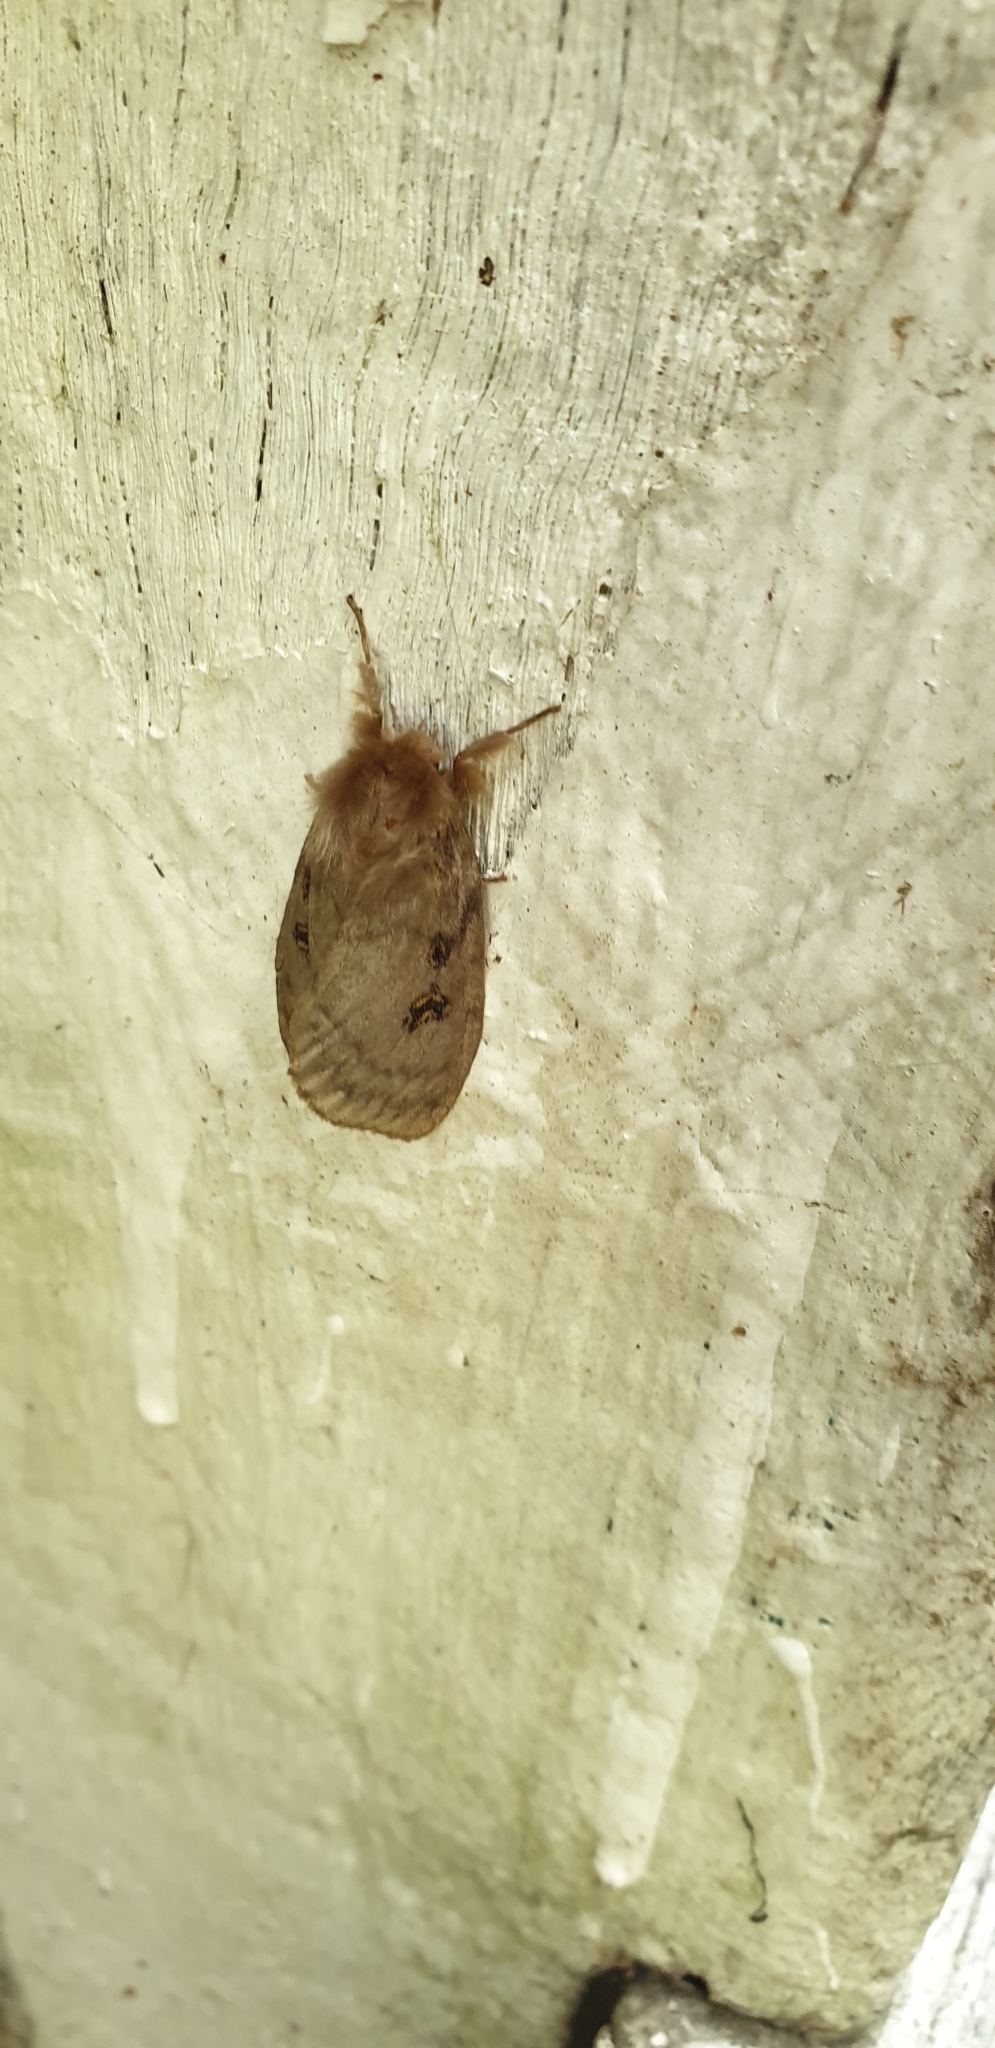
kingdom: Animalia
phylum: Arthropoda
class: Insecta
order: Lepidoptera
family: Erebidae
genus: Leptocneria
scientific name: Leptocneria reducta
